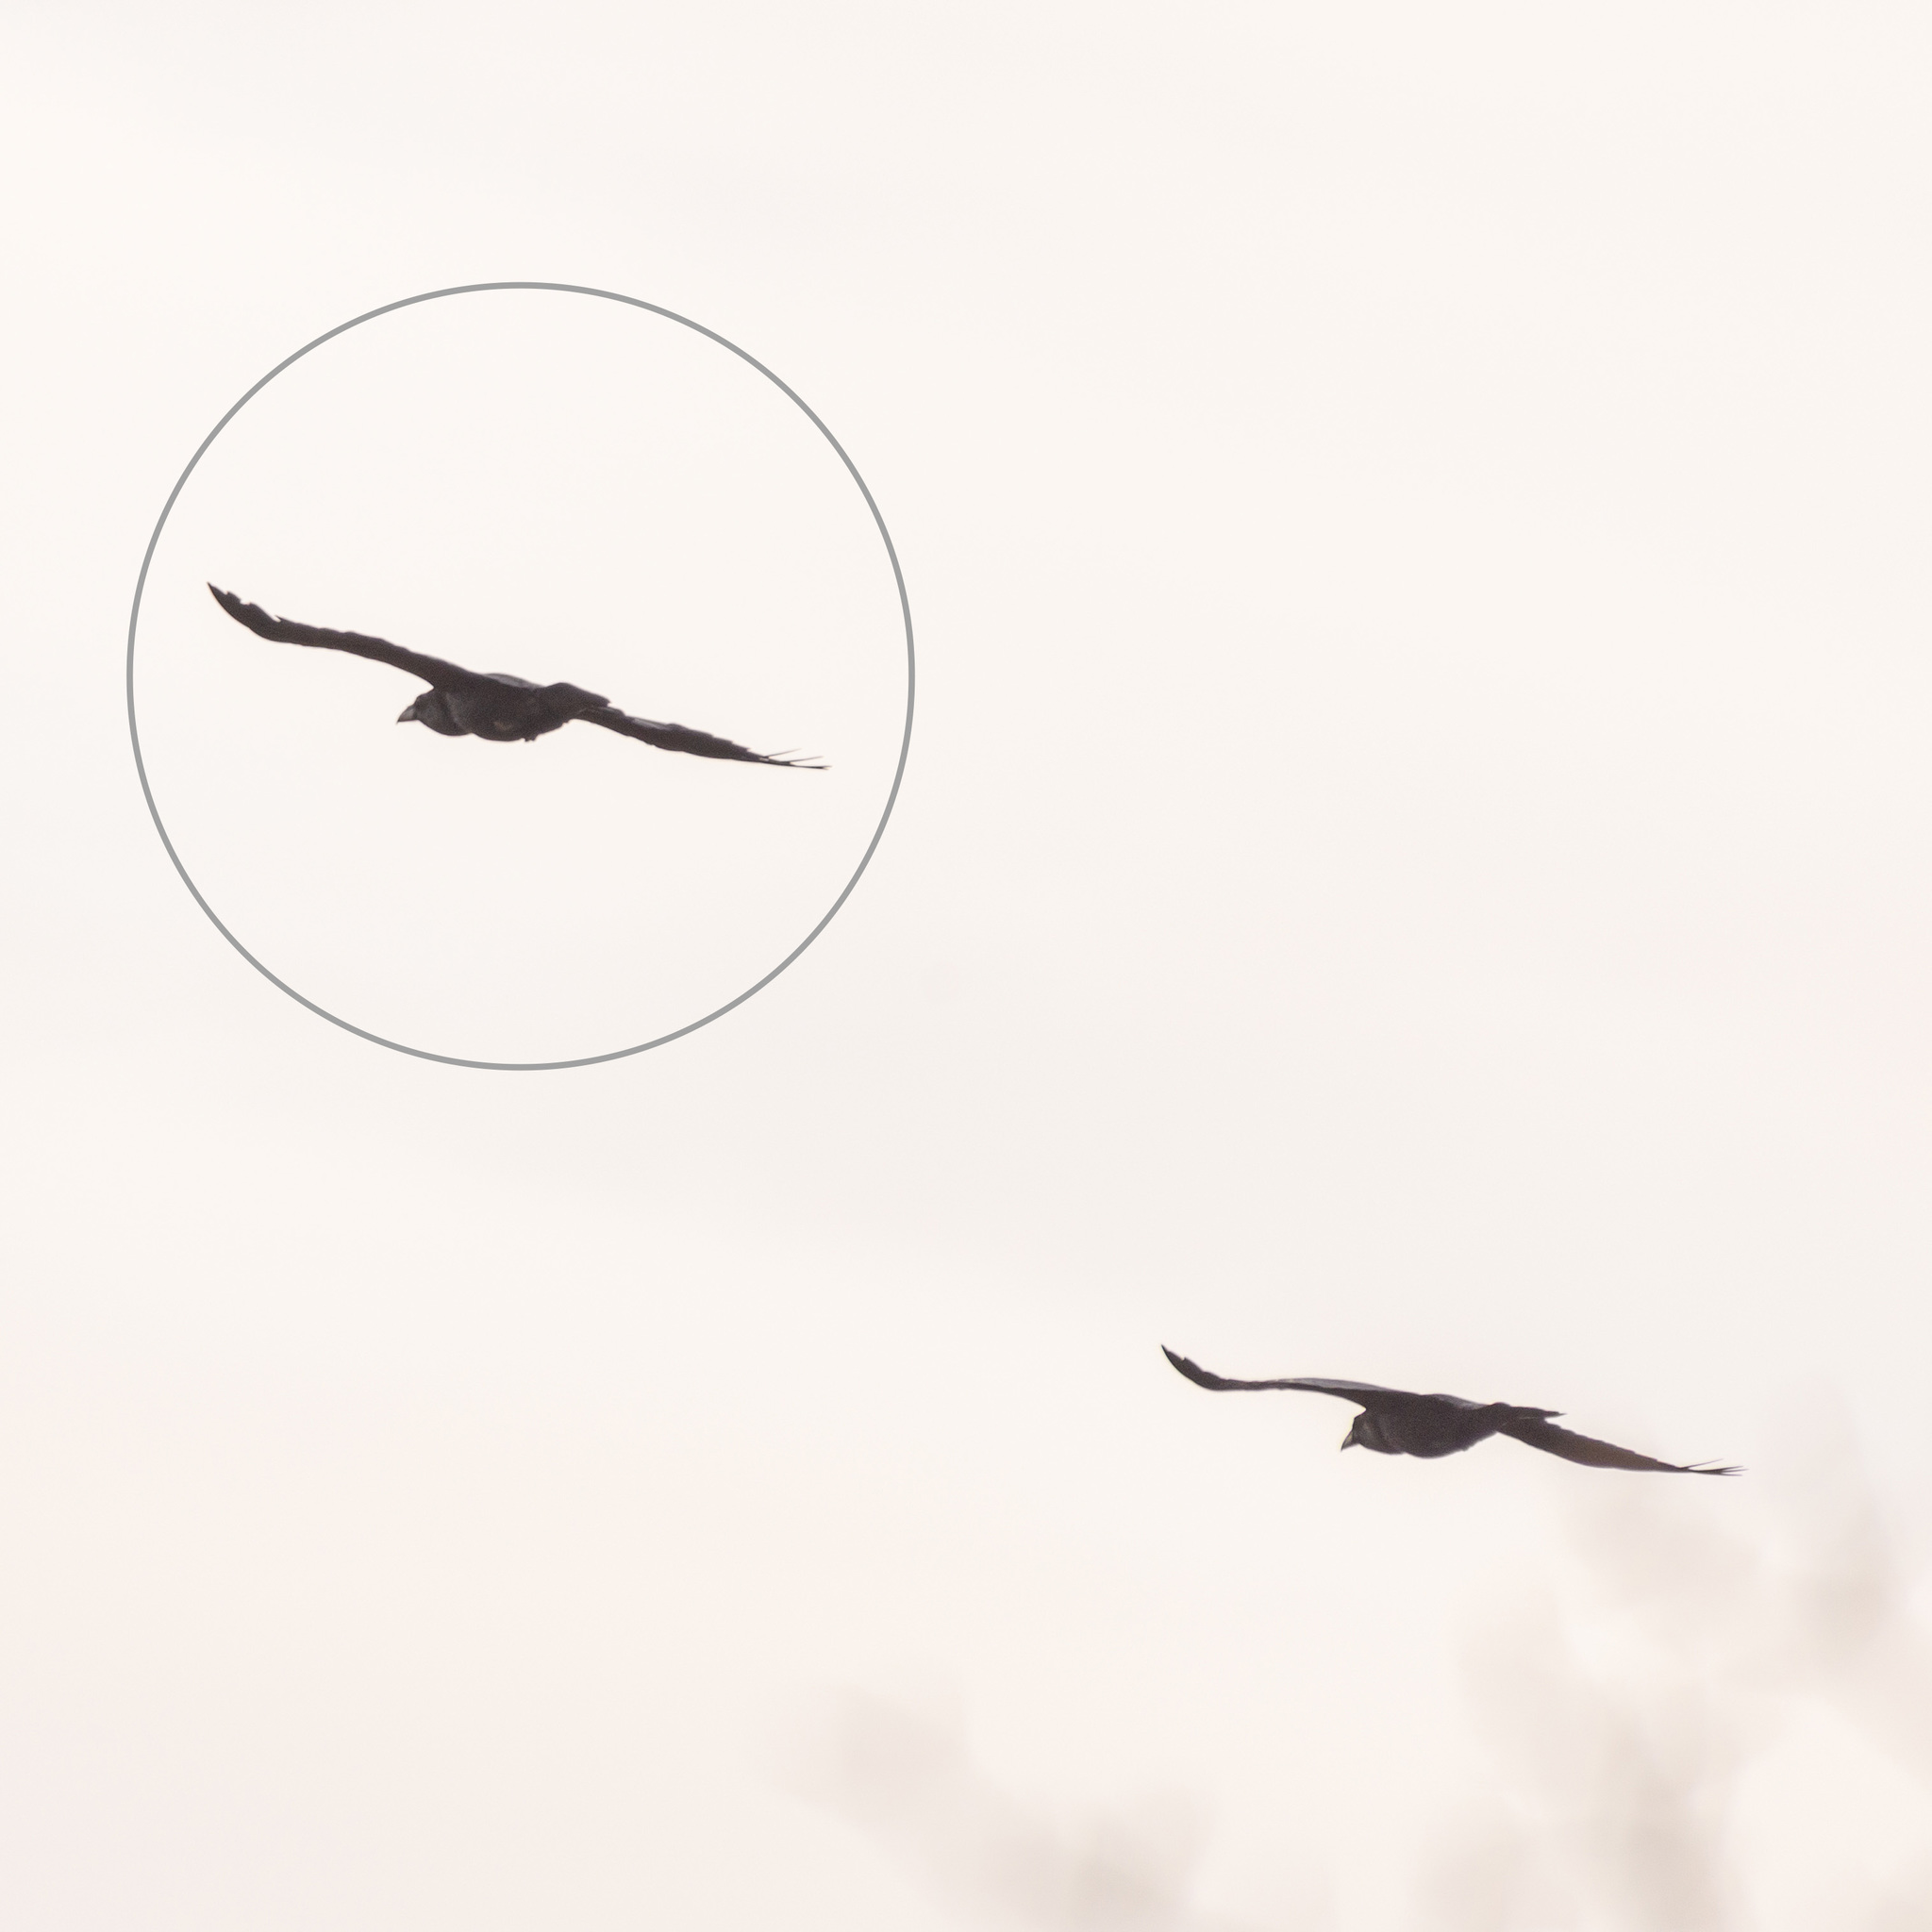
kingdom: Animalia
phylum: Chordata
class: Aves
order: Passeriformes
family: Corvidae
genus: Corvus
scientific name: Corvus corax
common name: Common raven
